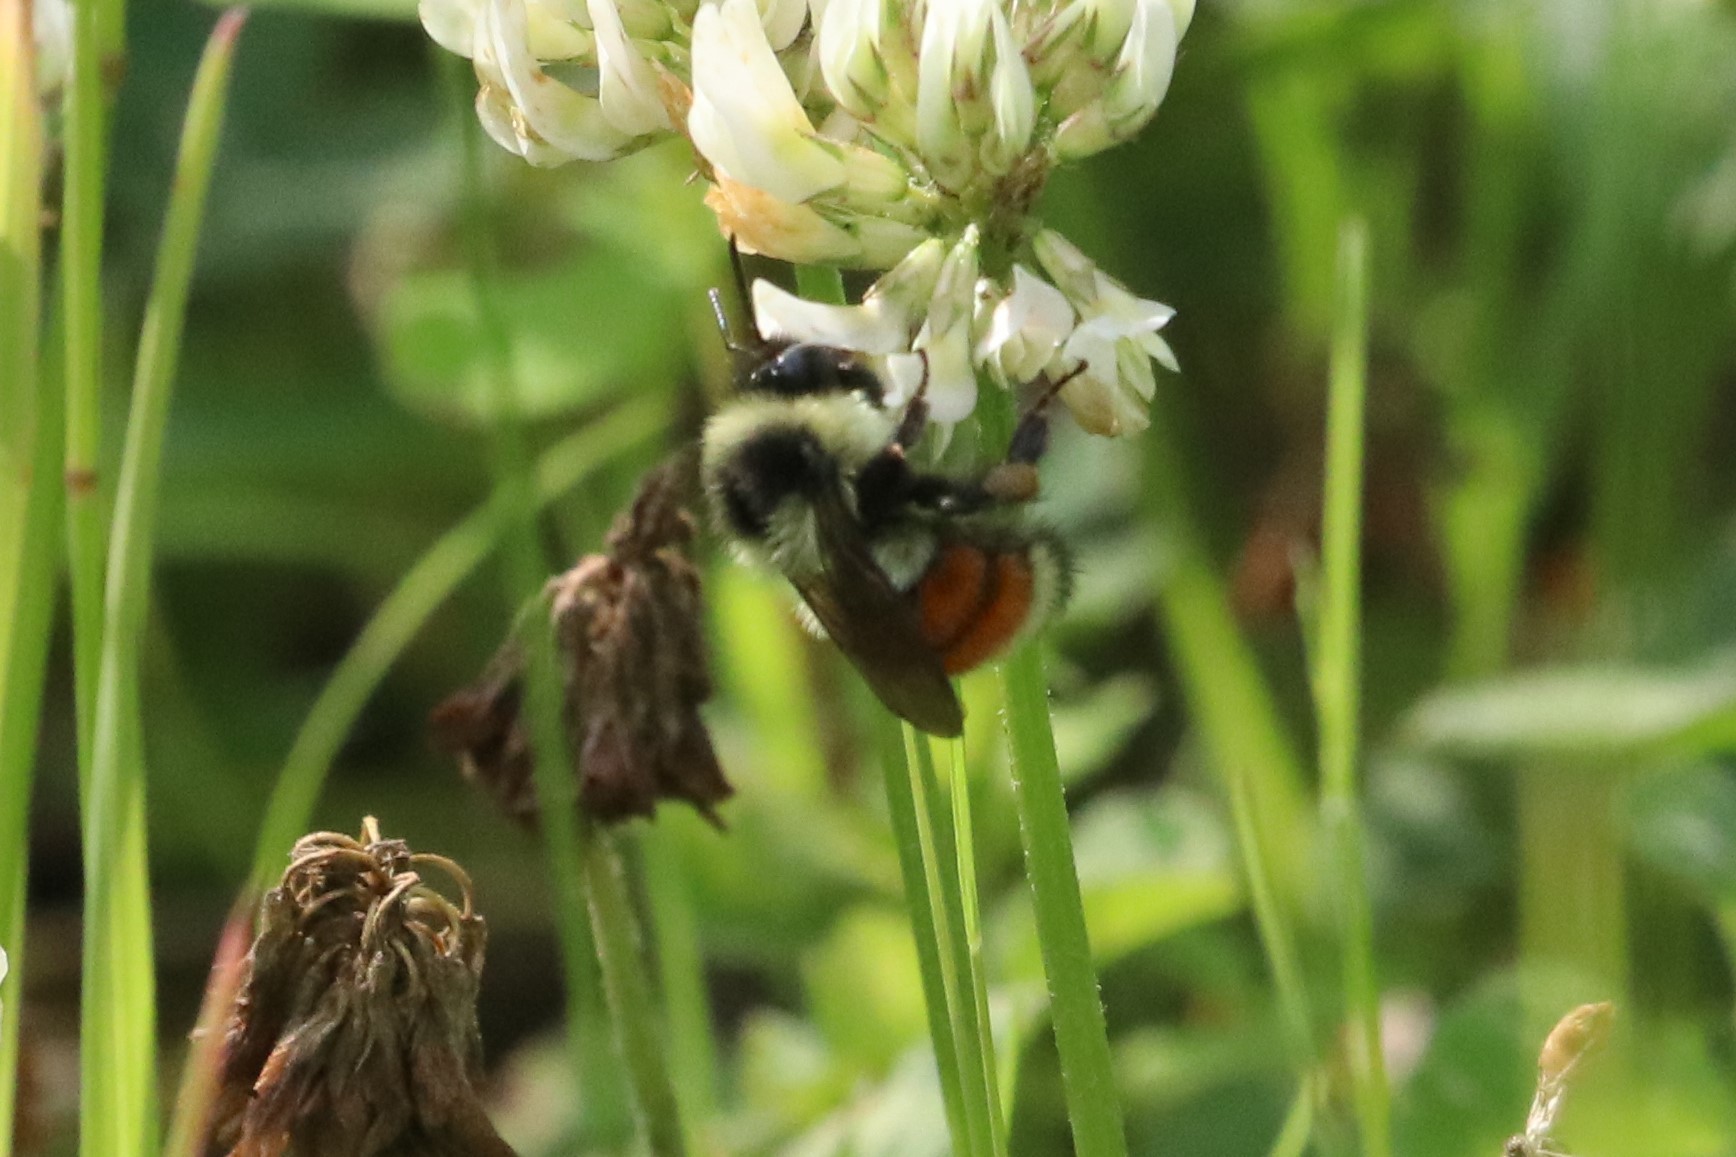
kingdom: Animalia
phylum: Arthropoda
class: Insecta
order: Hymenoptera
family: Apidae
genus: Bombus
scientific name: Bombus ternarius
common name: Tri-colored bumble bee
